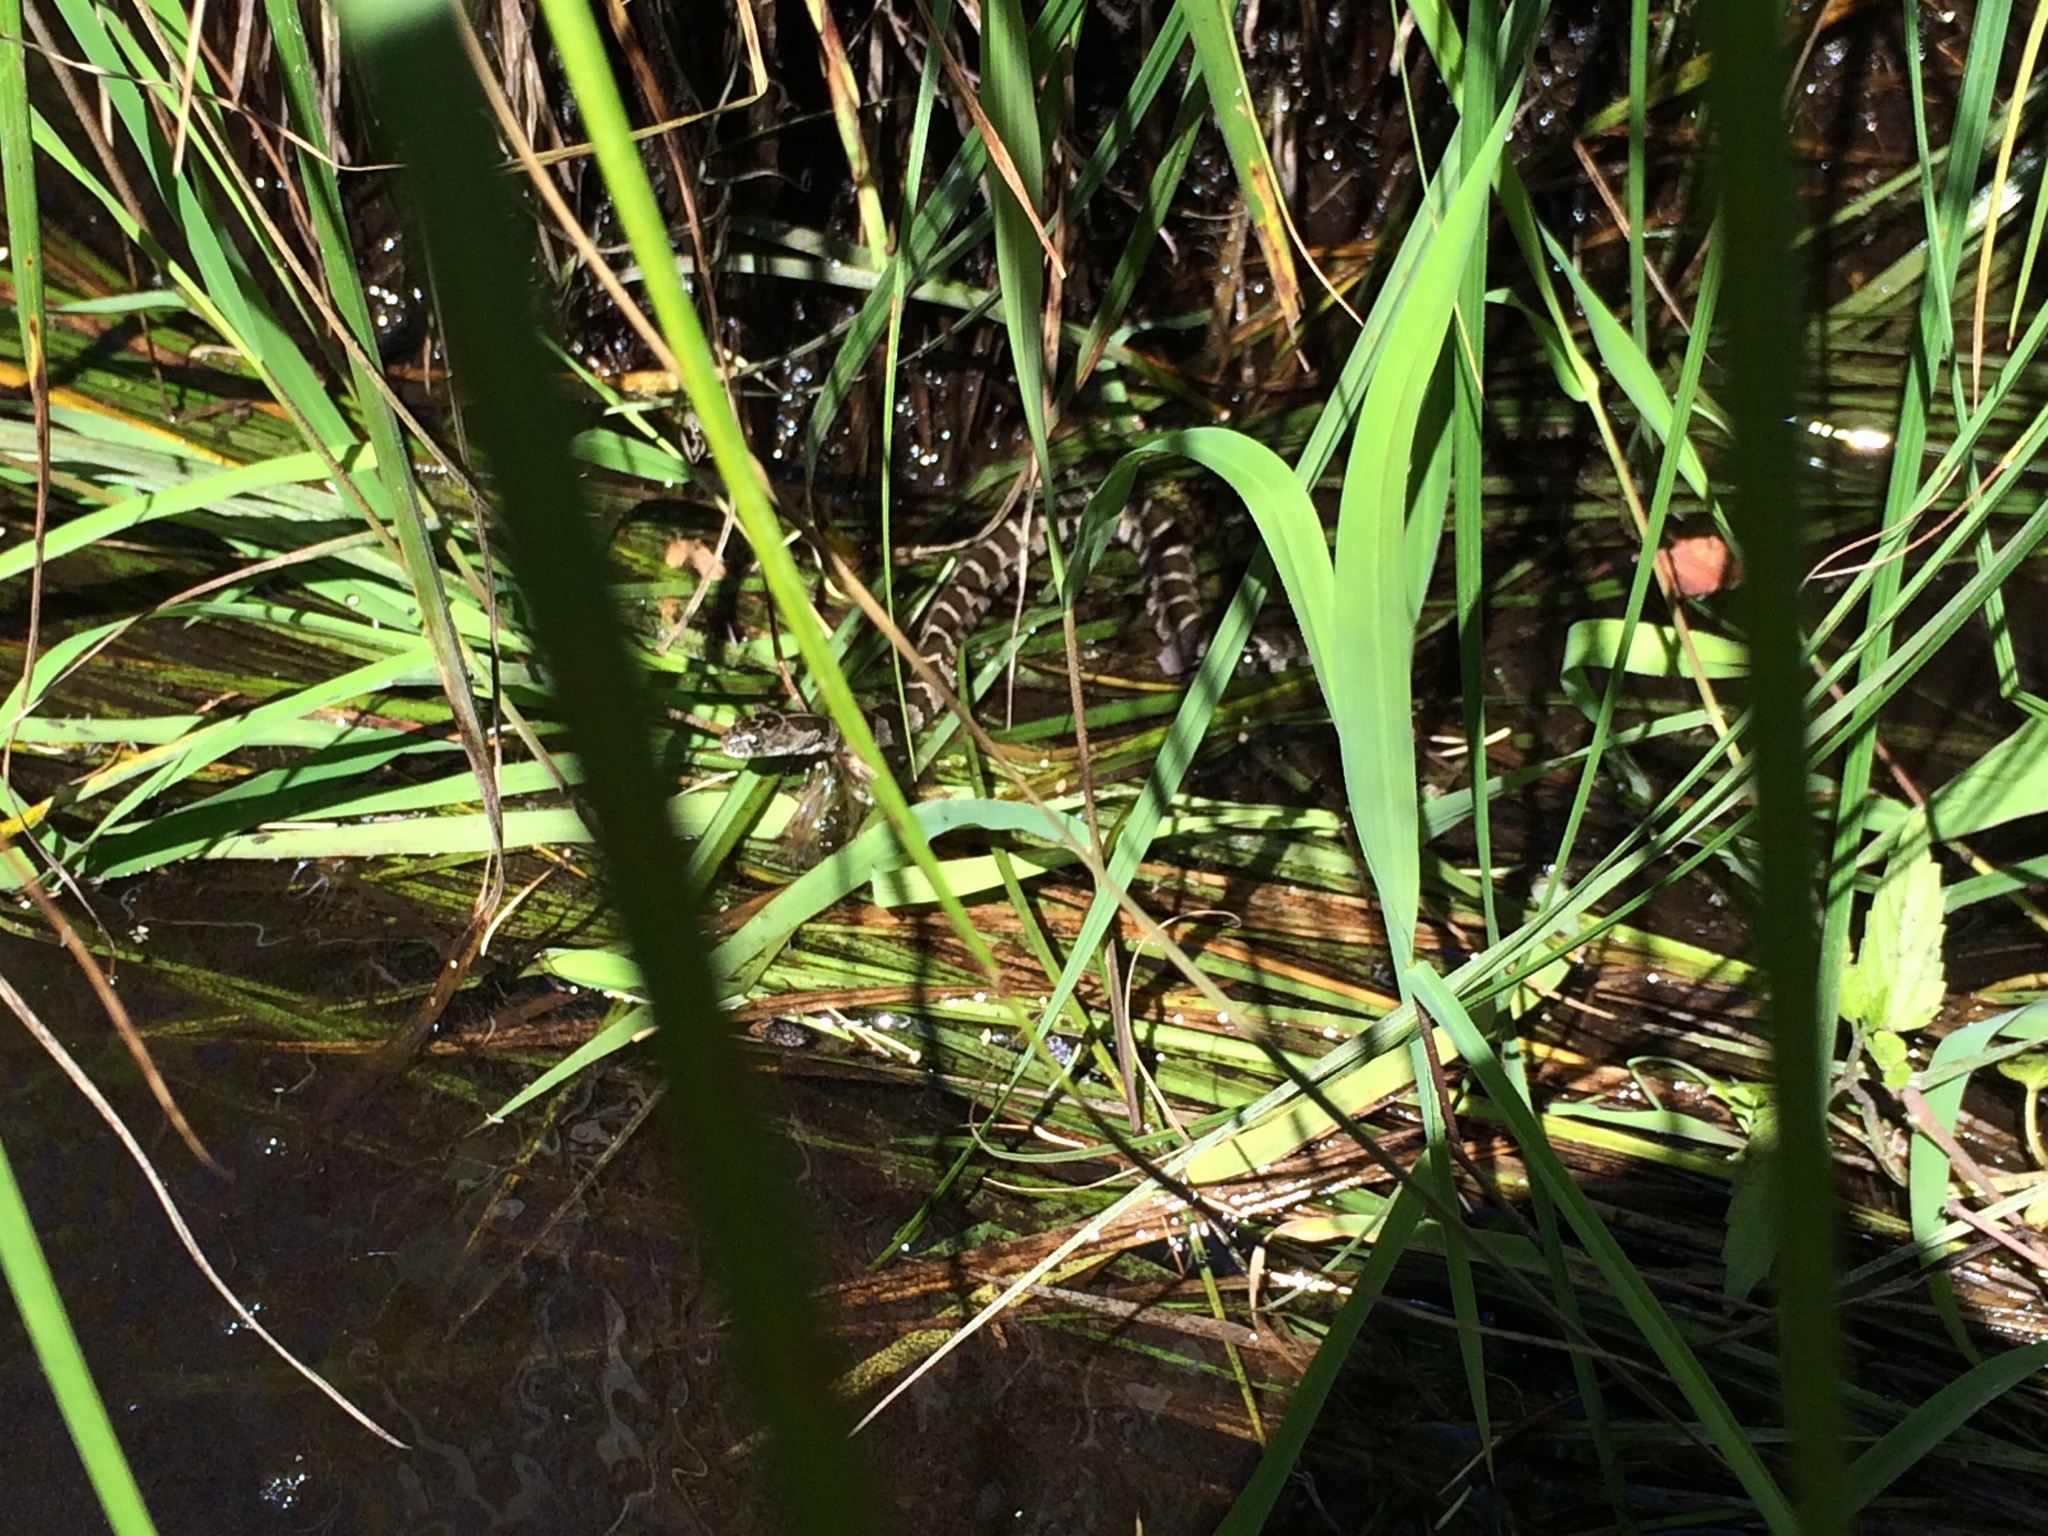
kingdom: Animalia
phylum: Chordata
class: Squamata
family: Colubridae
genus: Nerodia
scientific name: Nerodia sipedon
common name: Northern water snake
